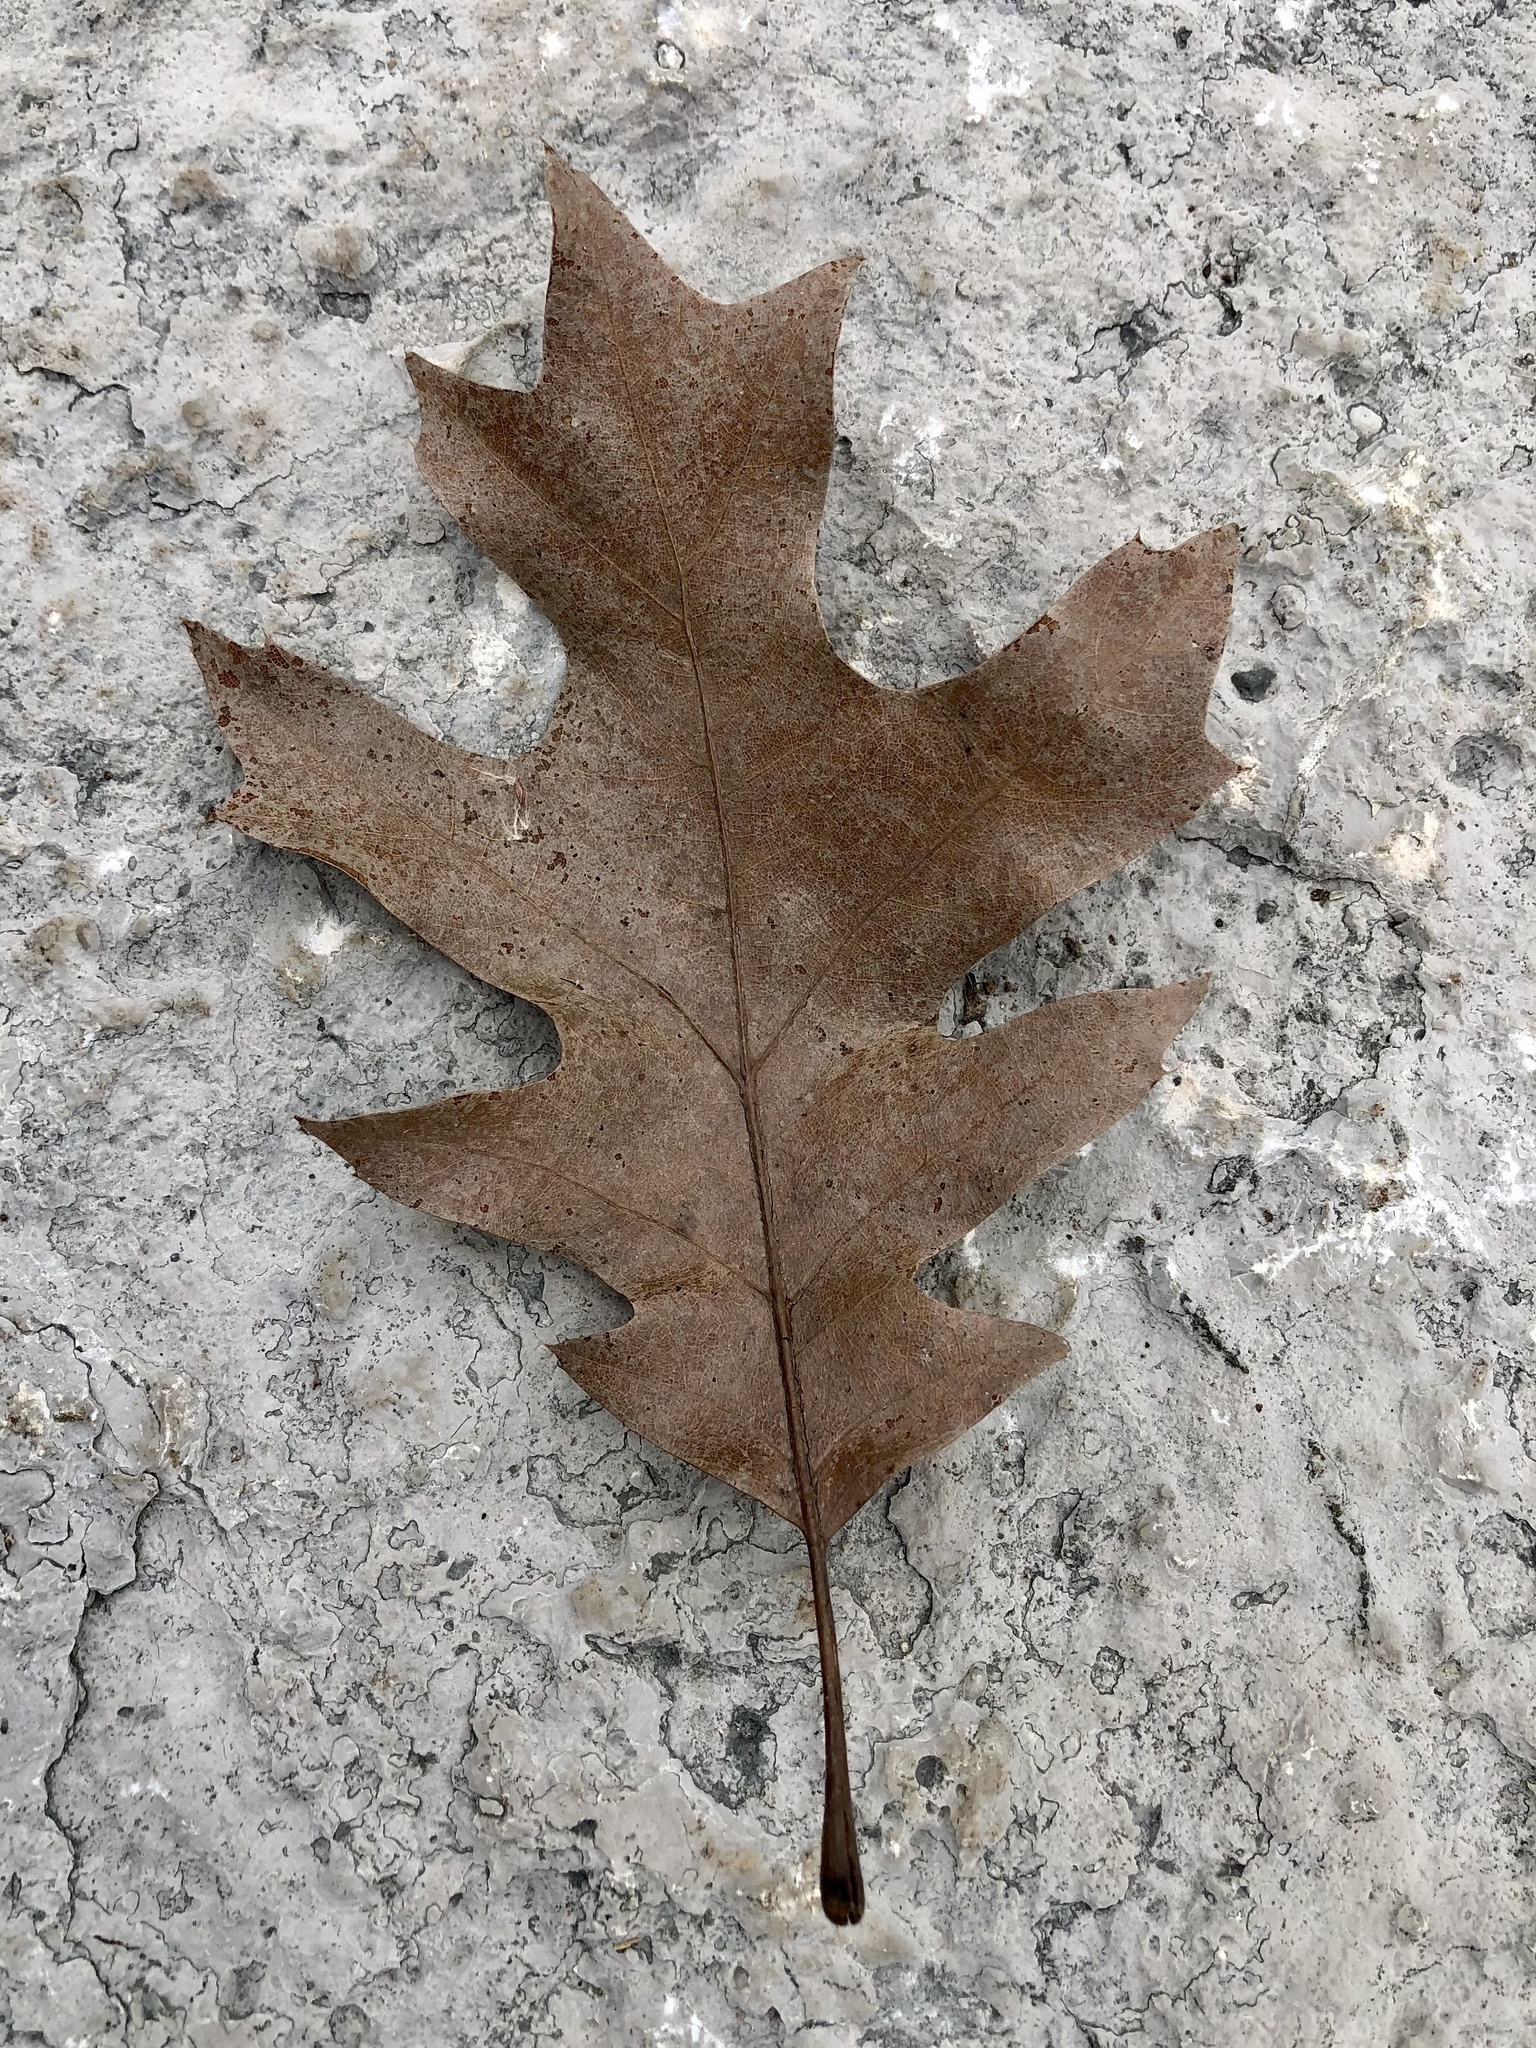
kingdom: Plantae
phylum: Tracheophyta
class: Magnoliopsida
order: Fagales
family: Fagaceae
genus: Quercus
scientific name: Quercus rubra
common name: Red oak
